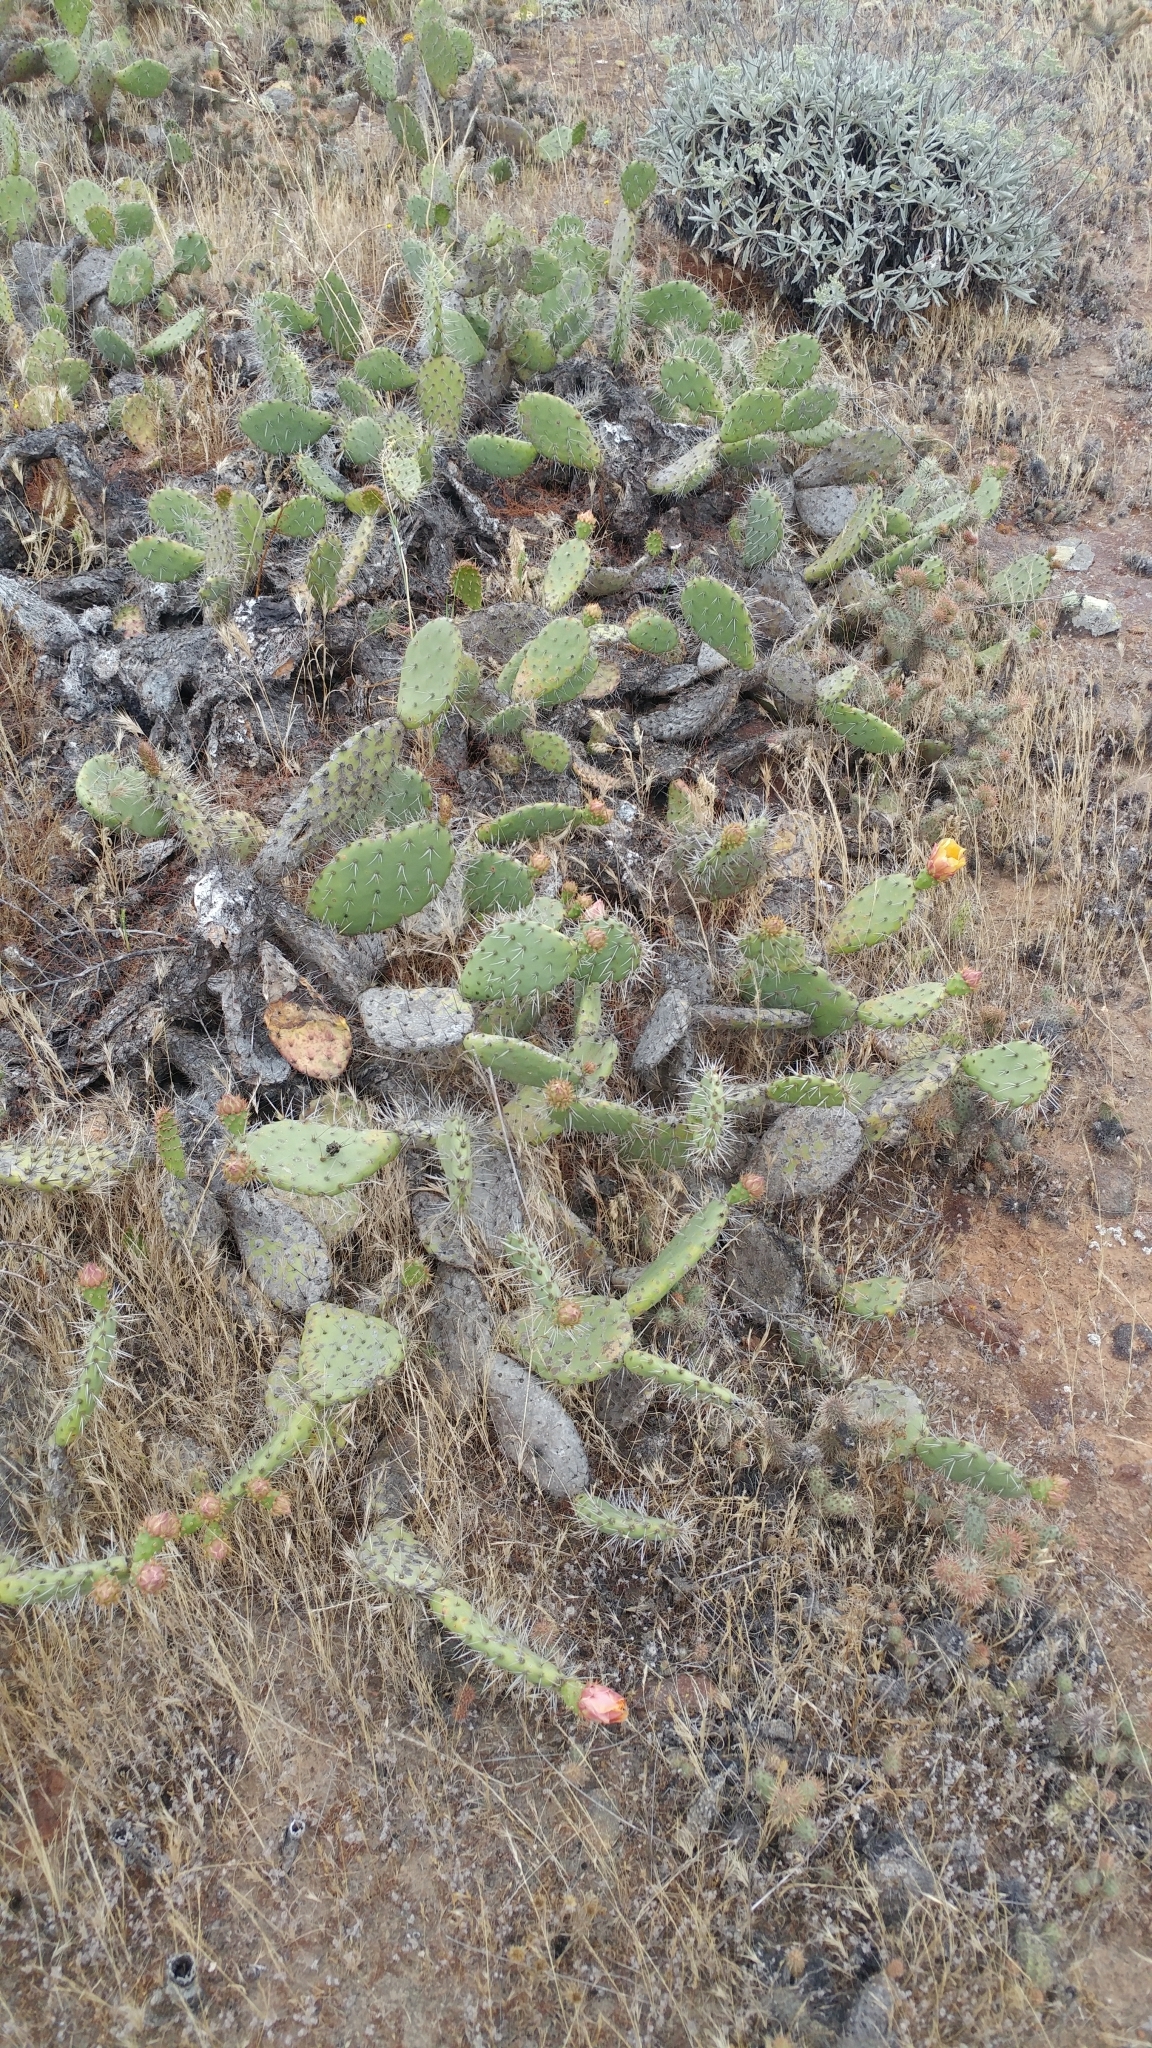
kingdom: Plantae
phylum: Tracheophyta
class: Magnoliopsida
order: Caryophyllales
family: Cactaceae
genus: Opuntia
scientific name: Opuntia littoralis
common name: Coastal prickly-pear
